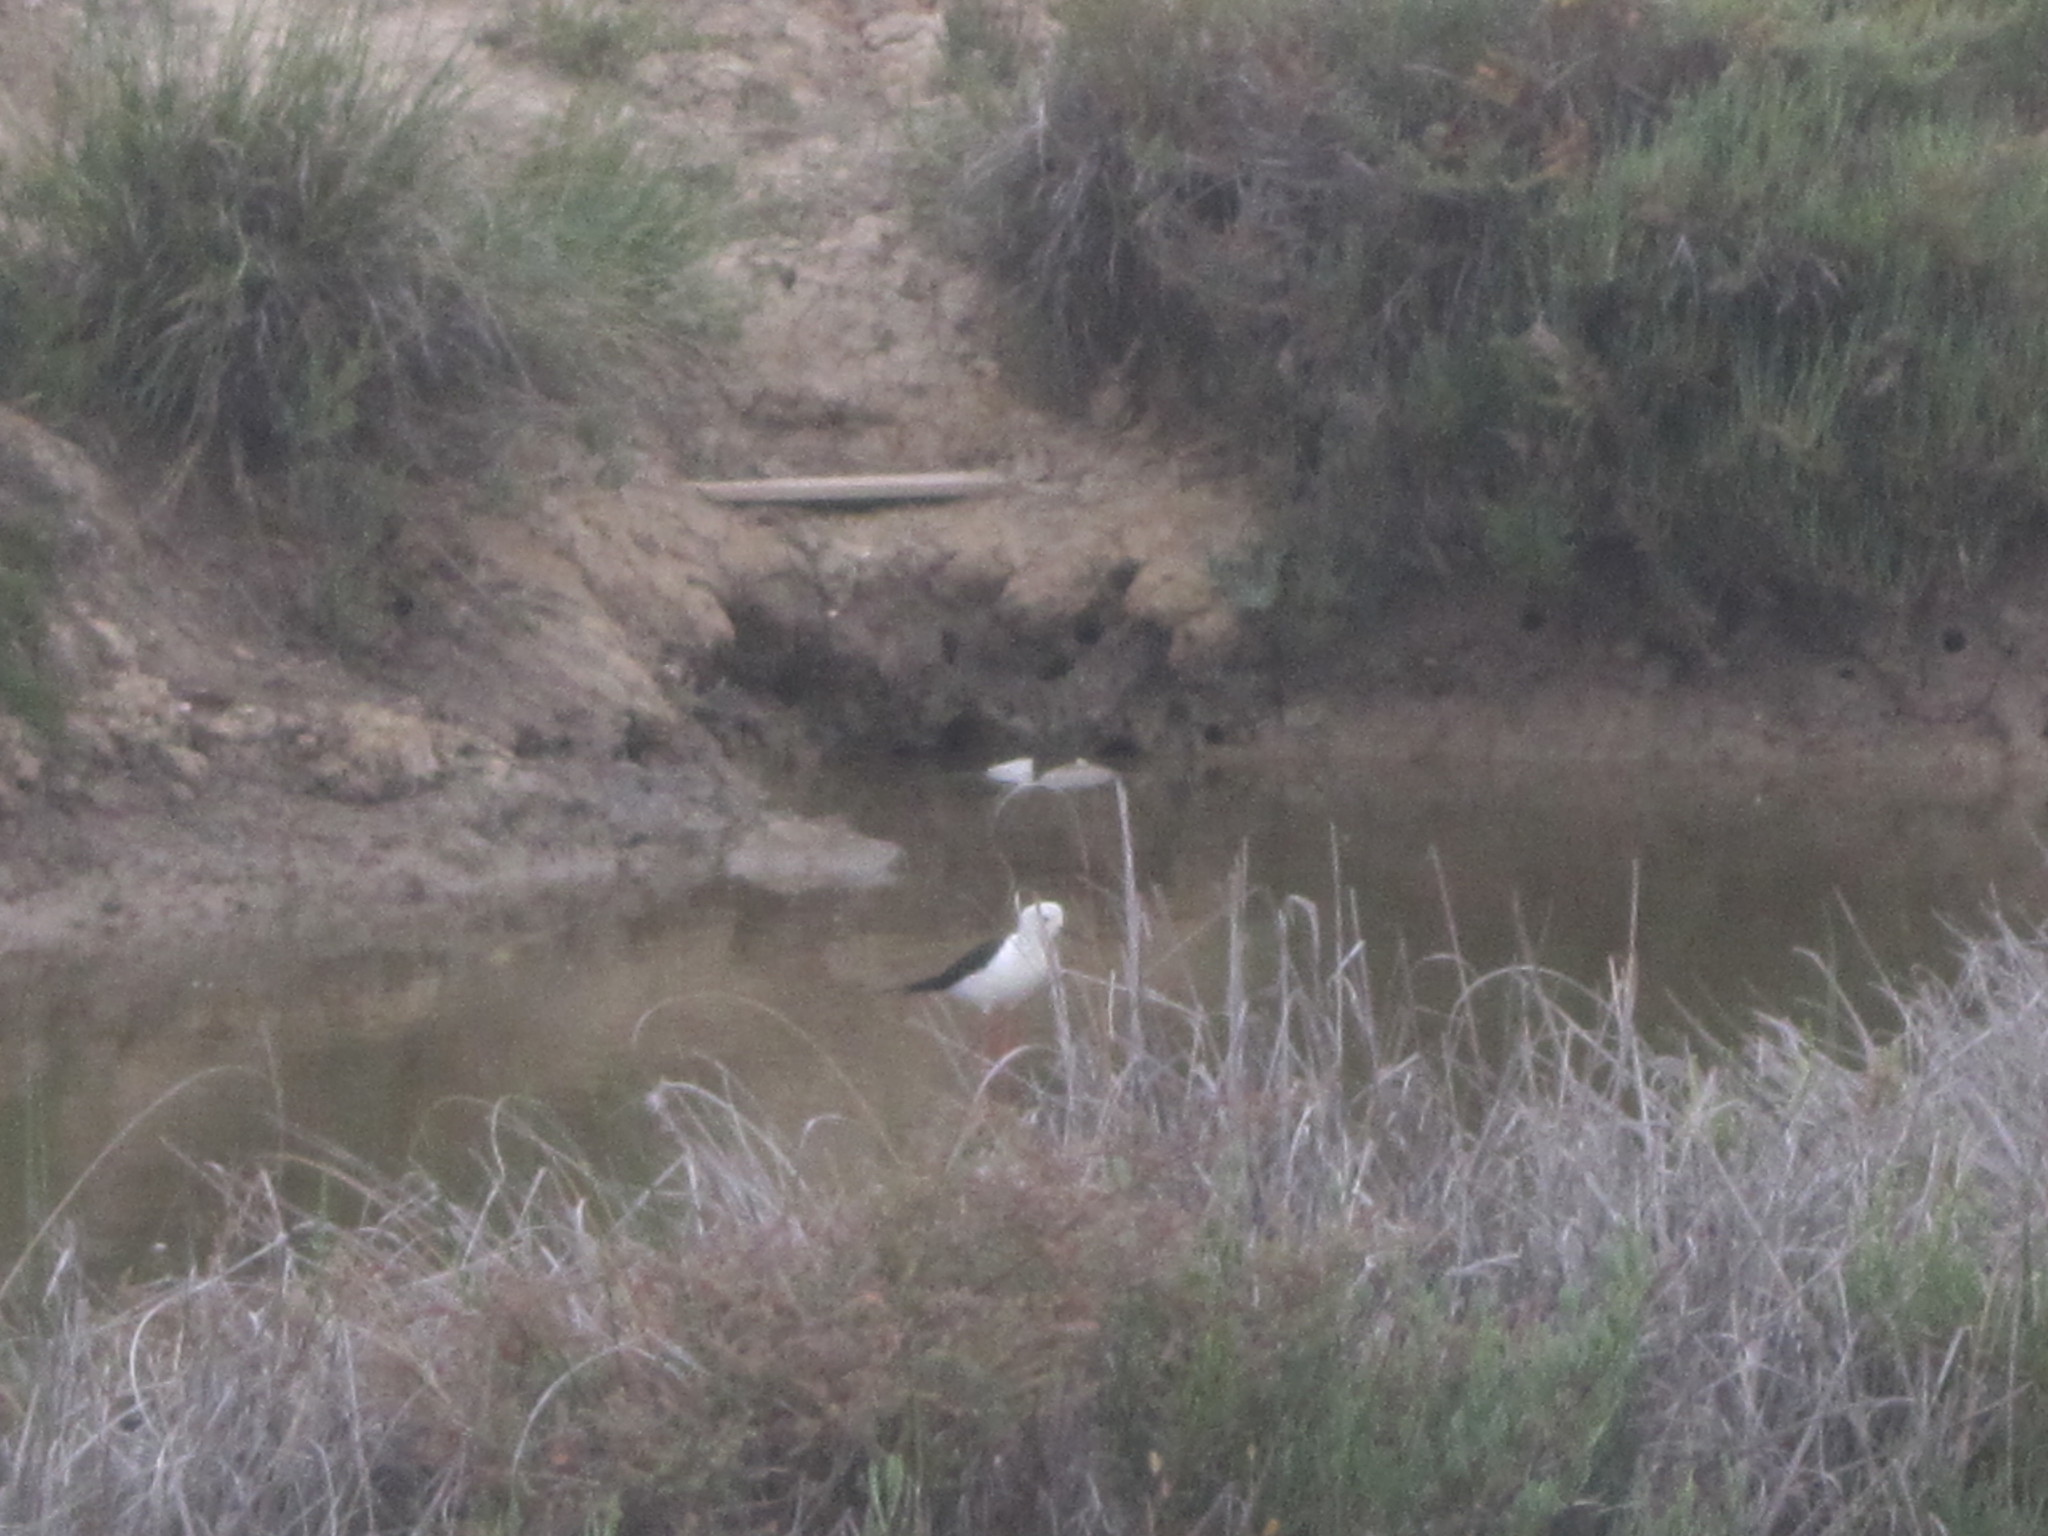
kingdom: Animalia
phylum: Chordata
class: Aves
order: Charadriiformes
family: Recurvirostridae
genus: Himantopus
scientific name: Himantopus himantopus
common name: Black-winged stilt
